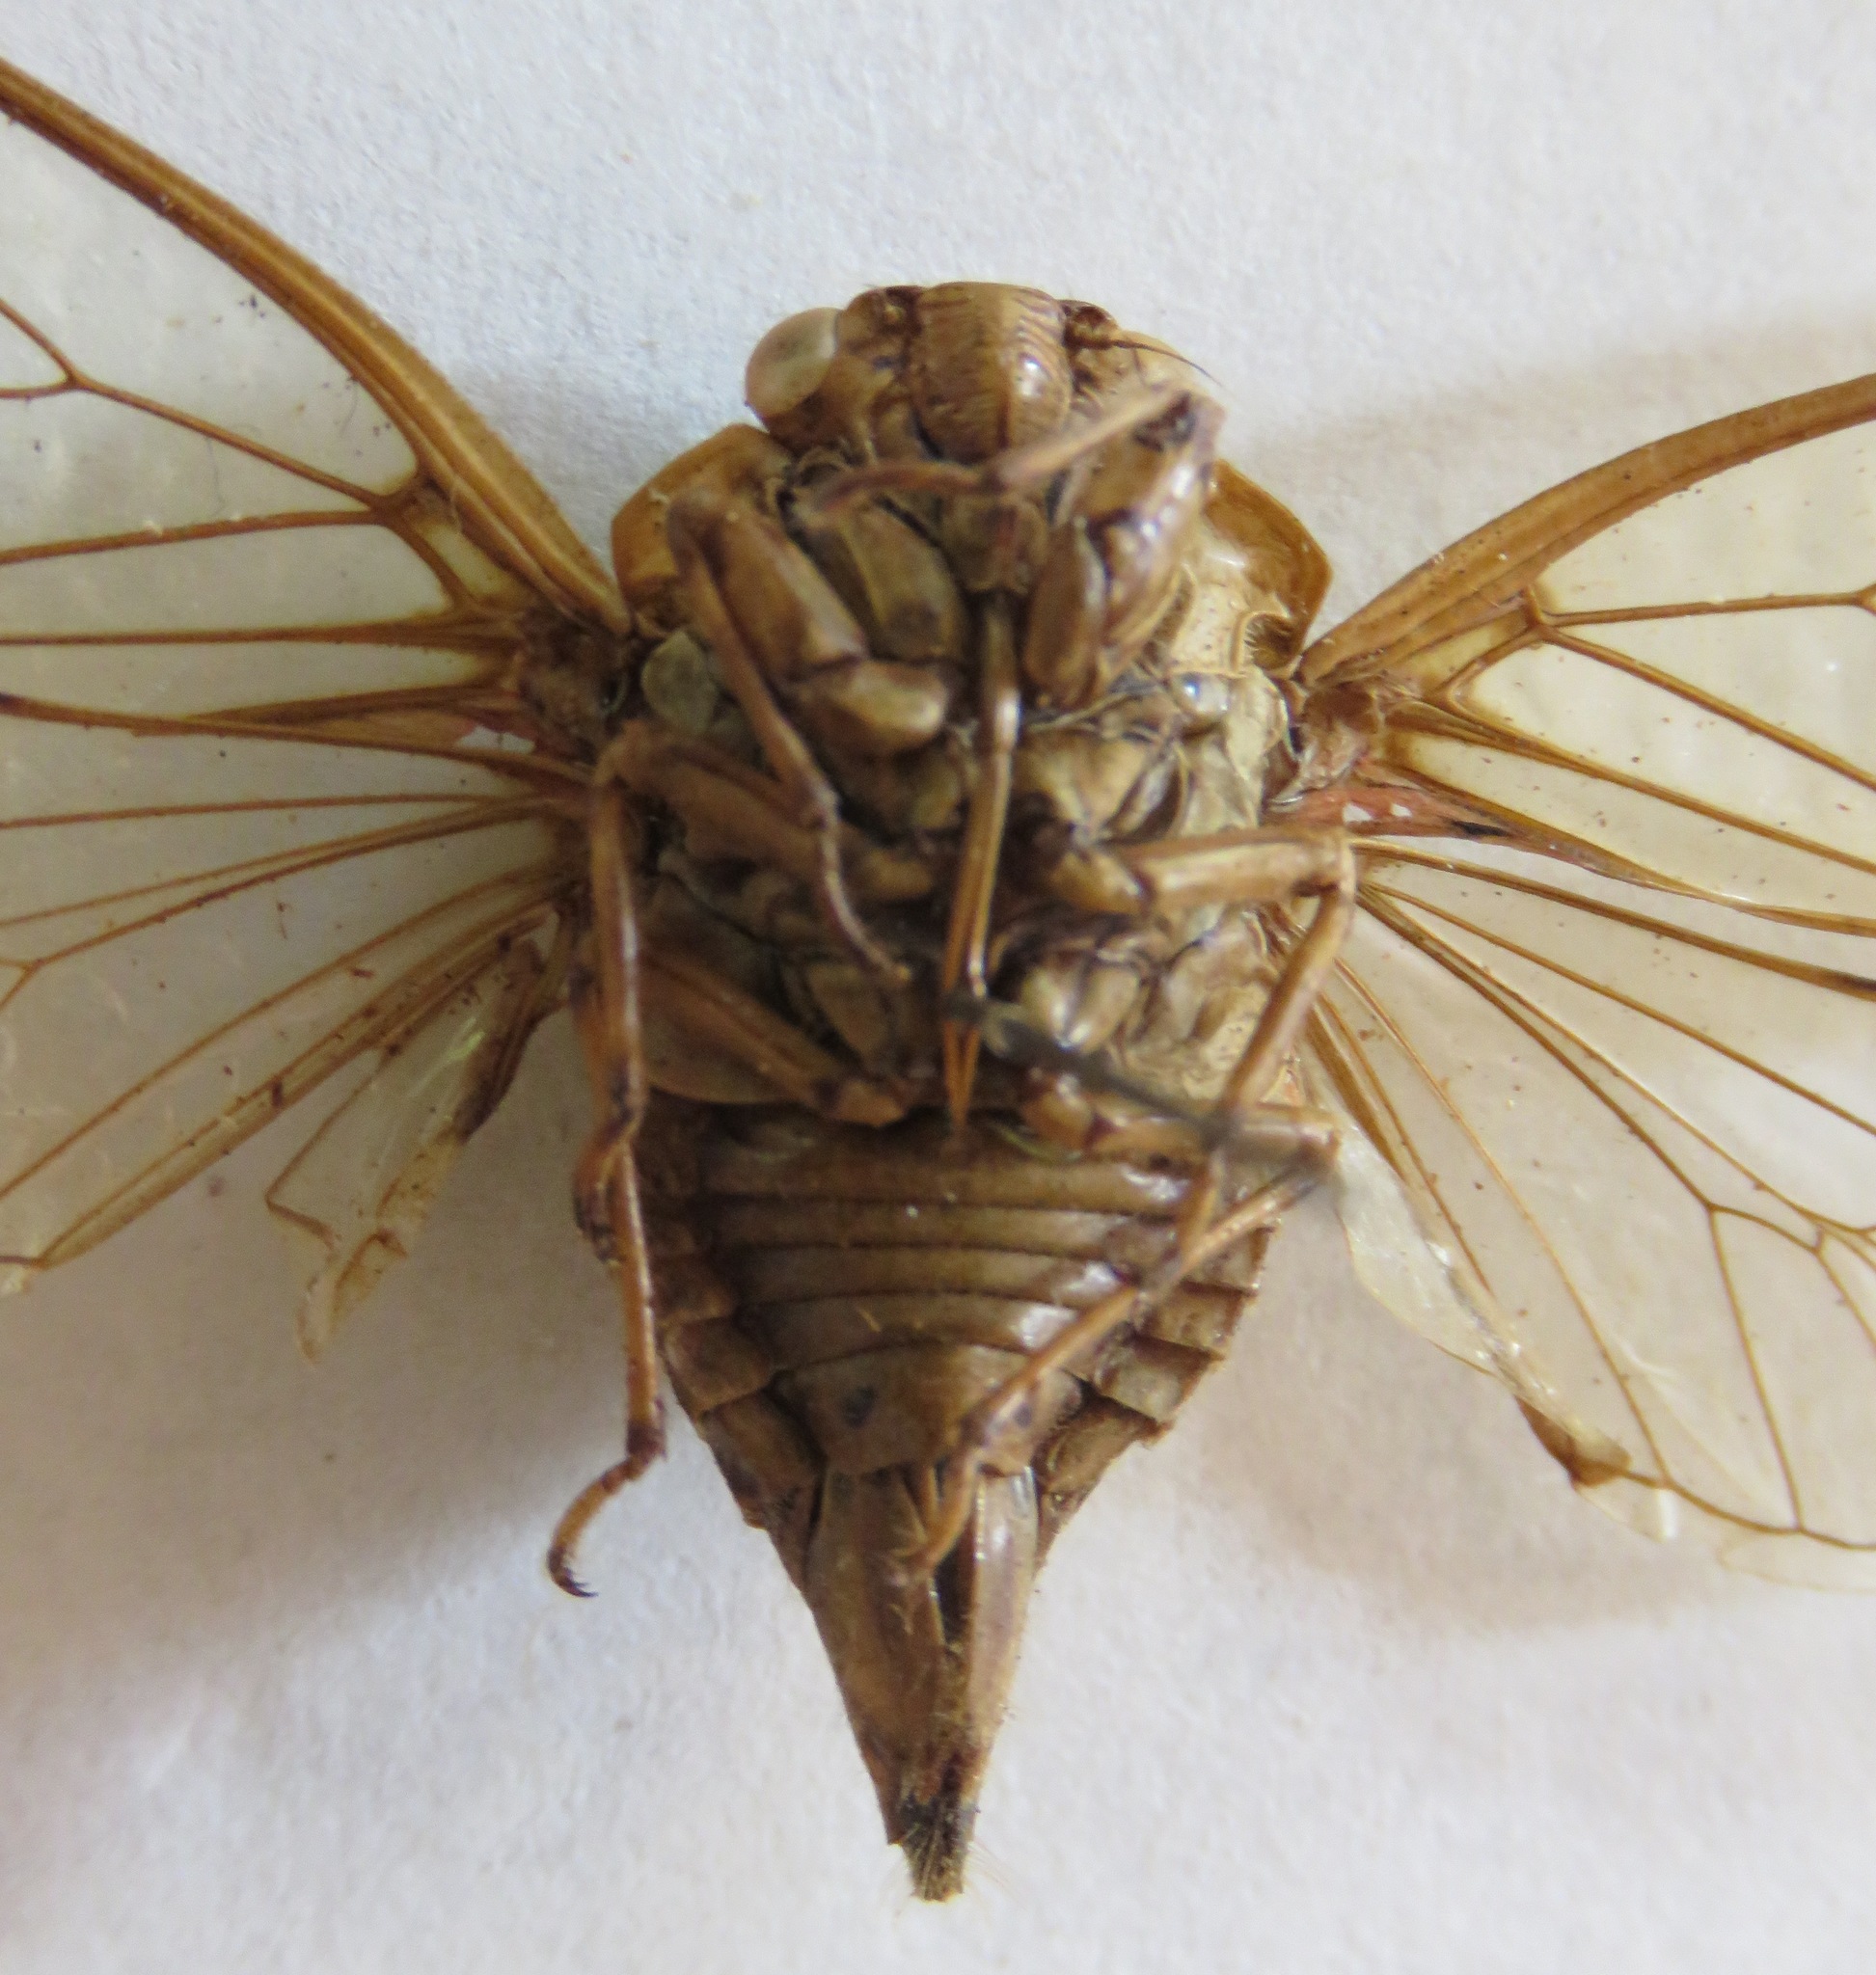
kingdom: Animalia
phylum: Arthropoda
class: Insecta
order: Hemiptera
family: Cicadidae
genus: Procollina
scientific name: Procollina nicaraguaensis
